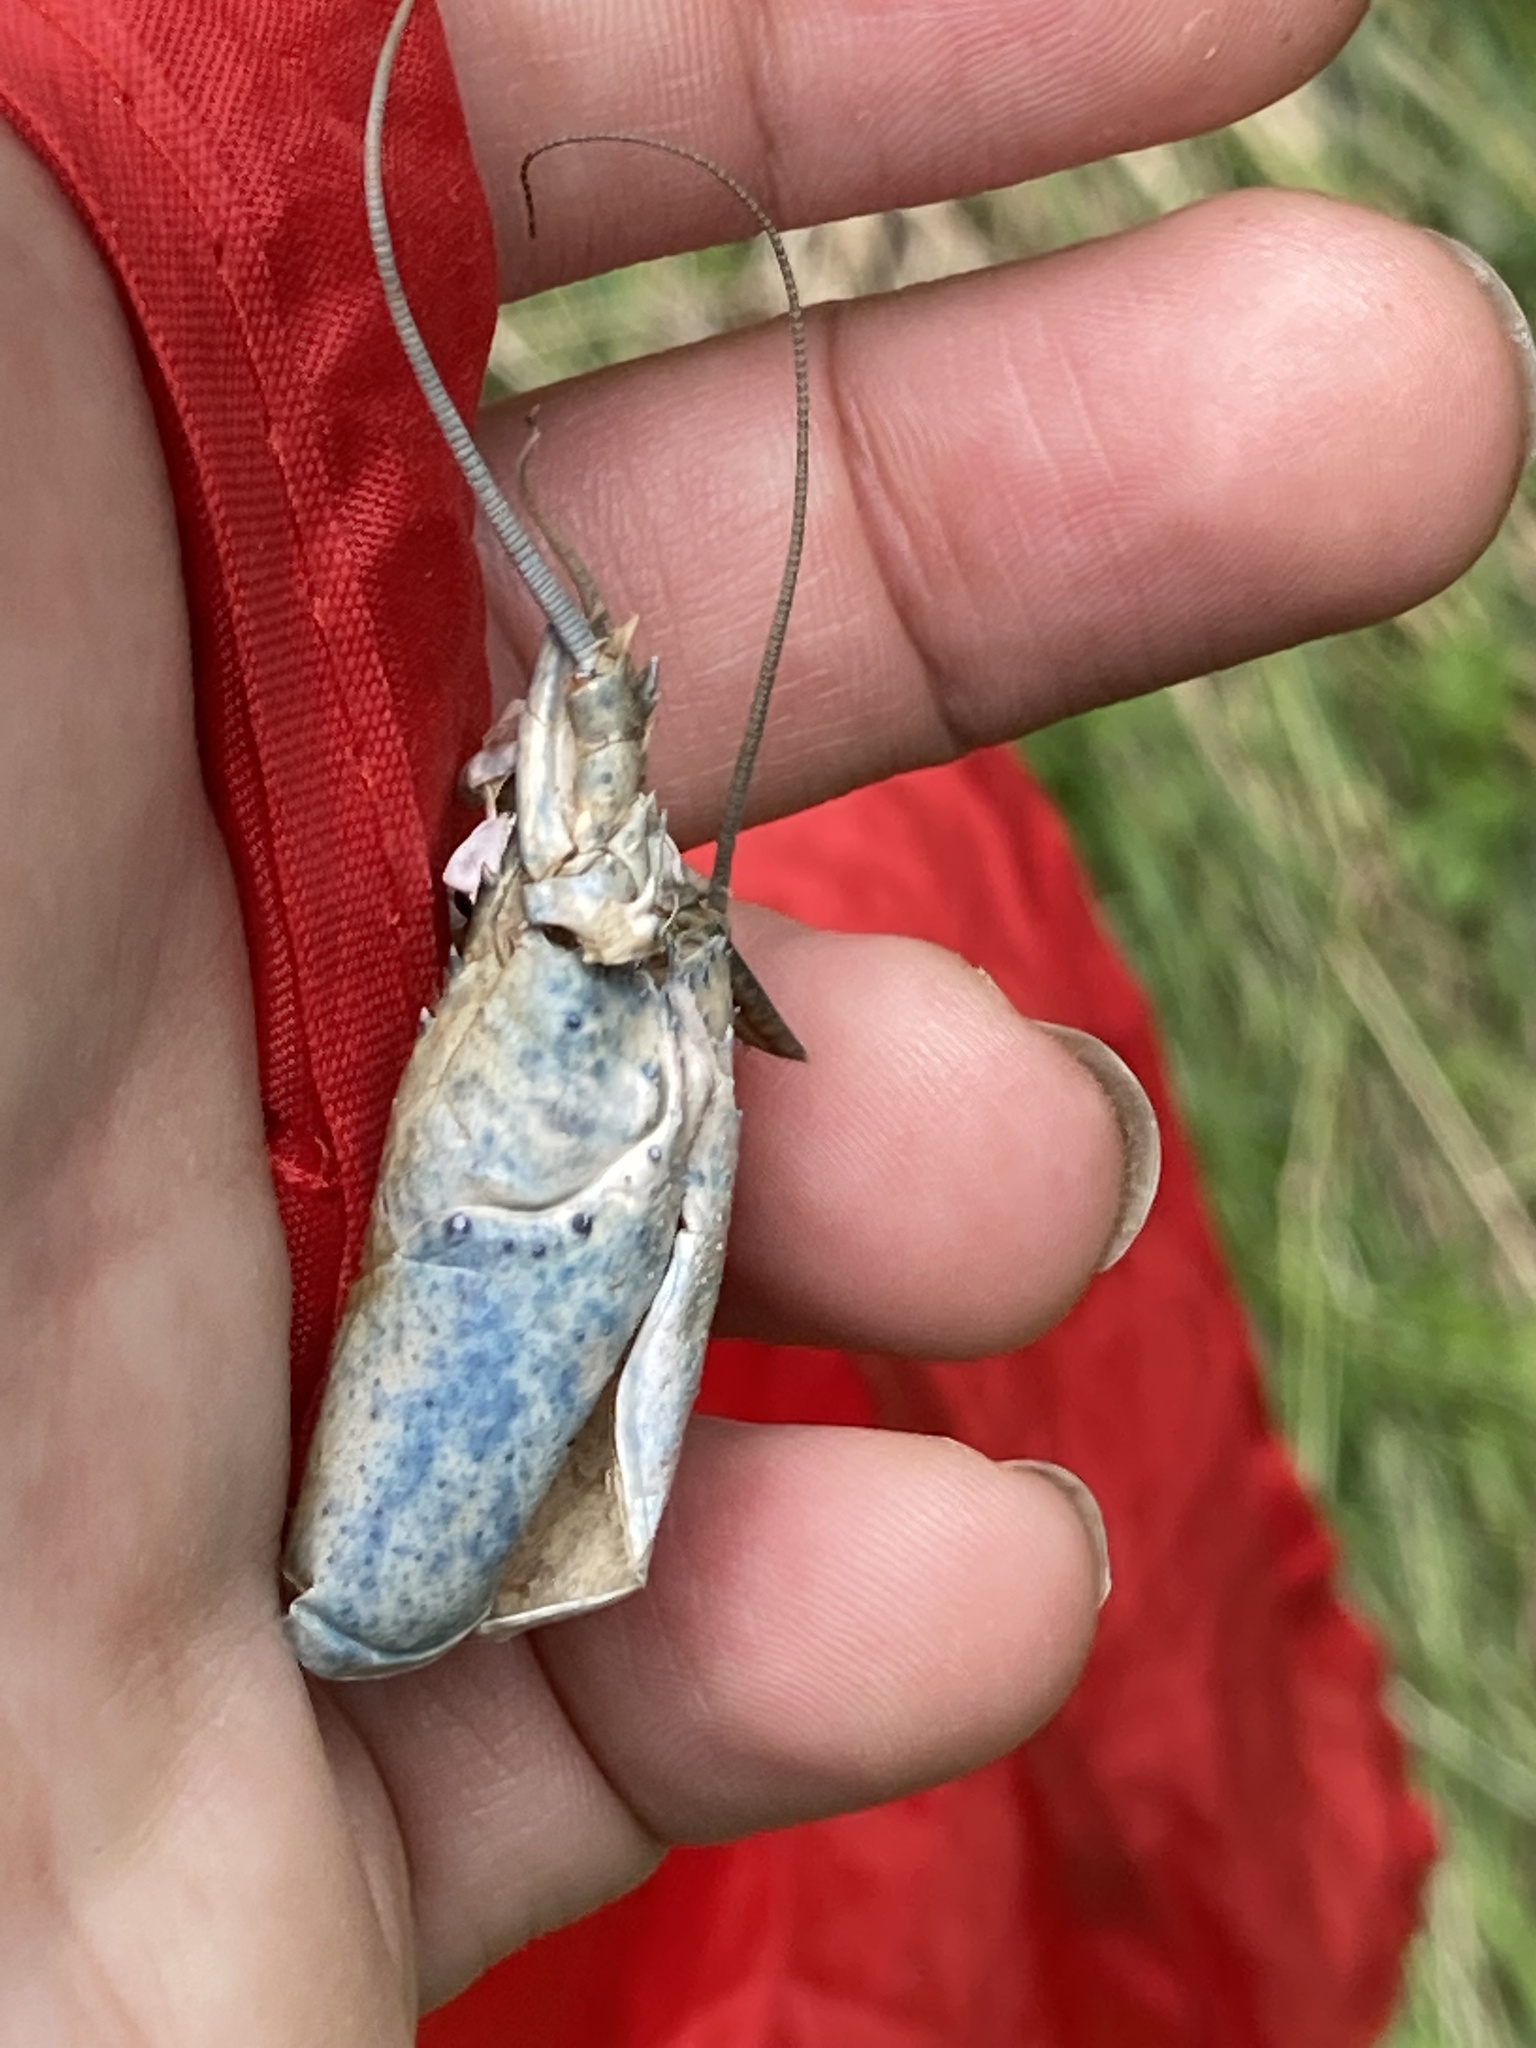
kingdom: Animalia
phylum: Arthropoda
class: Malacostraca
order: Decapoda
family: Parastacidae
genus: Paranephrops
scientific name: Paranephrops planifrons
